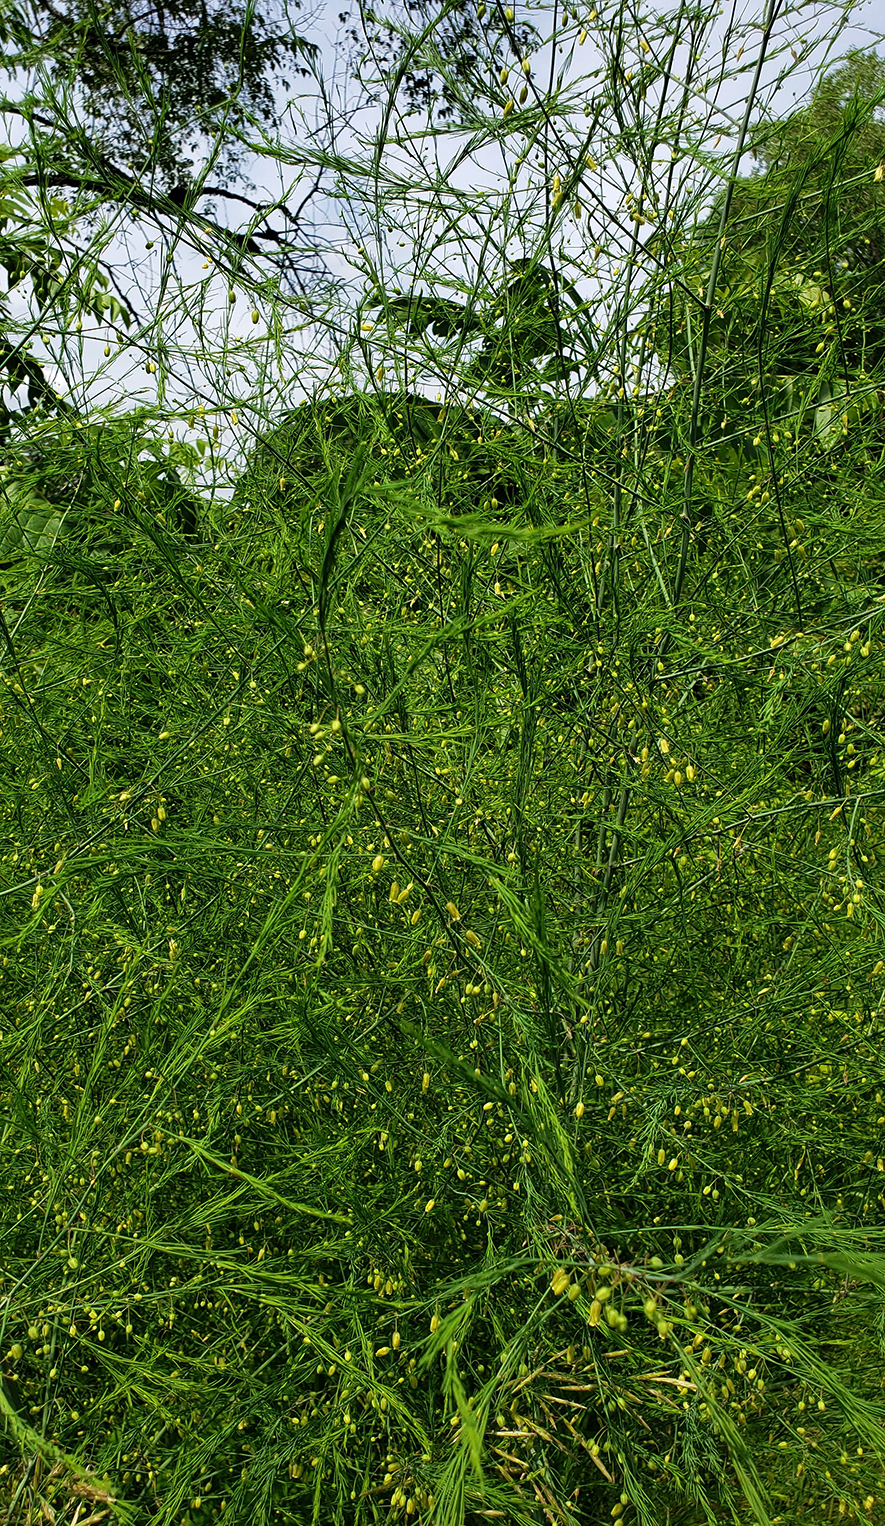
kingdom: Plantae
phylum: Tracheophyta
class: Liliopsida
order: Asparagales
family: Asparagaceae
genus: Asparagus
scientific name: Asparagus officinalis
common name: Garden asparagus
